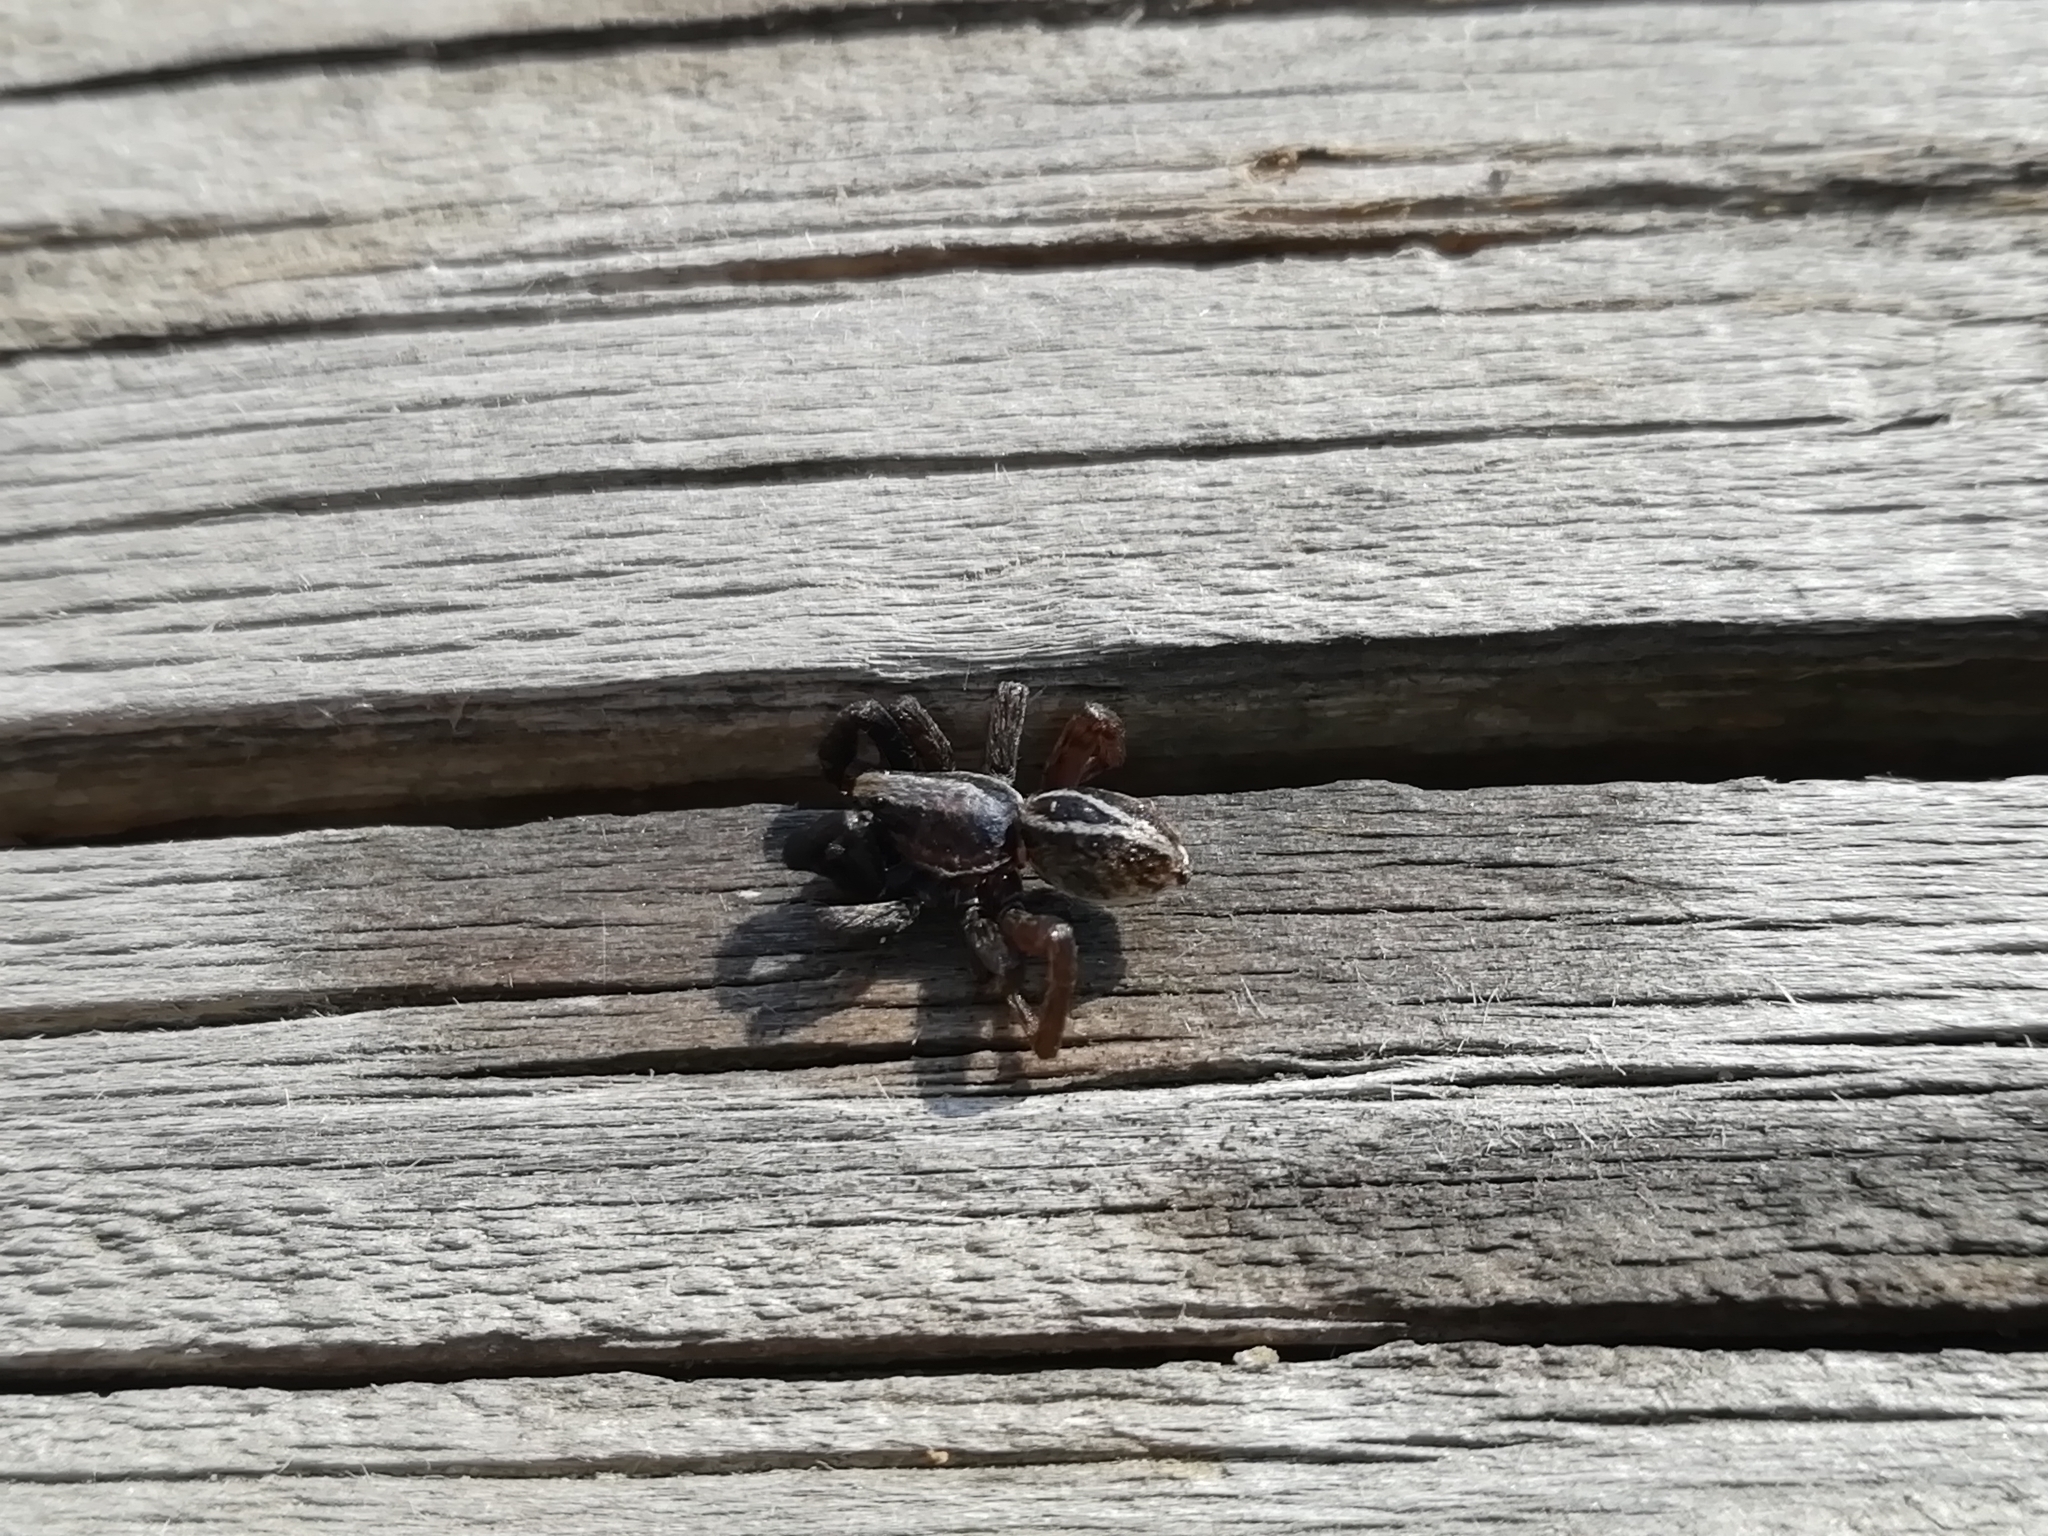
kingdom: Animalia
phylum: Arthropoda
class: Arachnida
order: Araneae
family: Lycosidae
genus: Alopecosa
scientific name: Alopecosa cuneata
